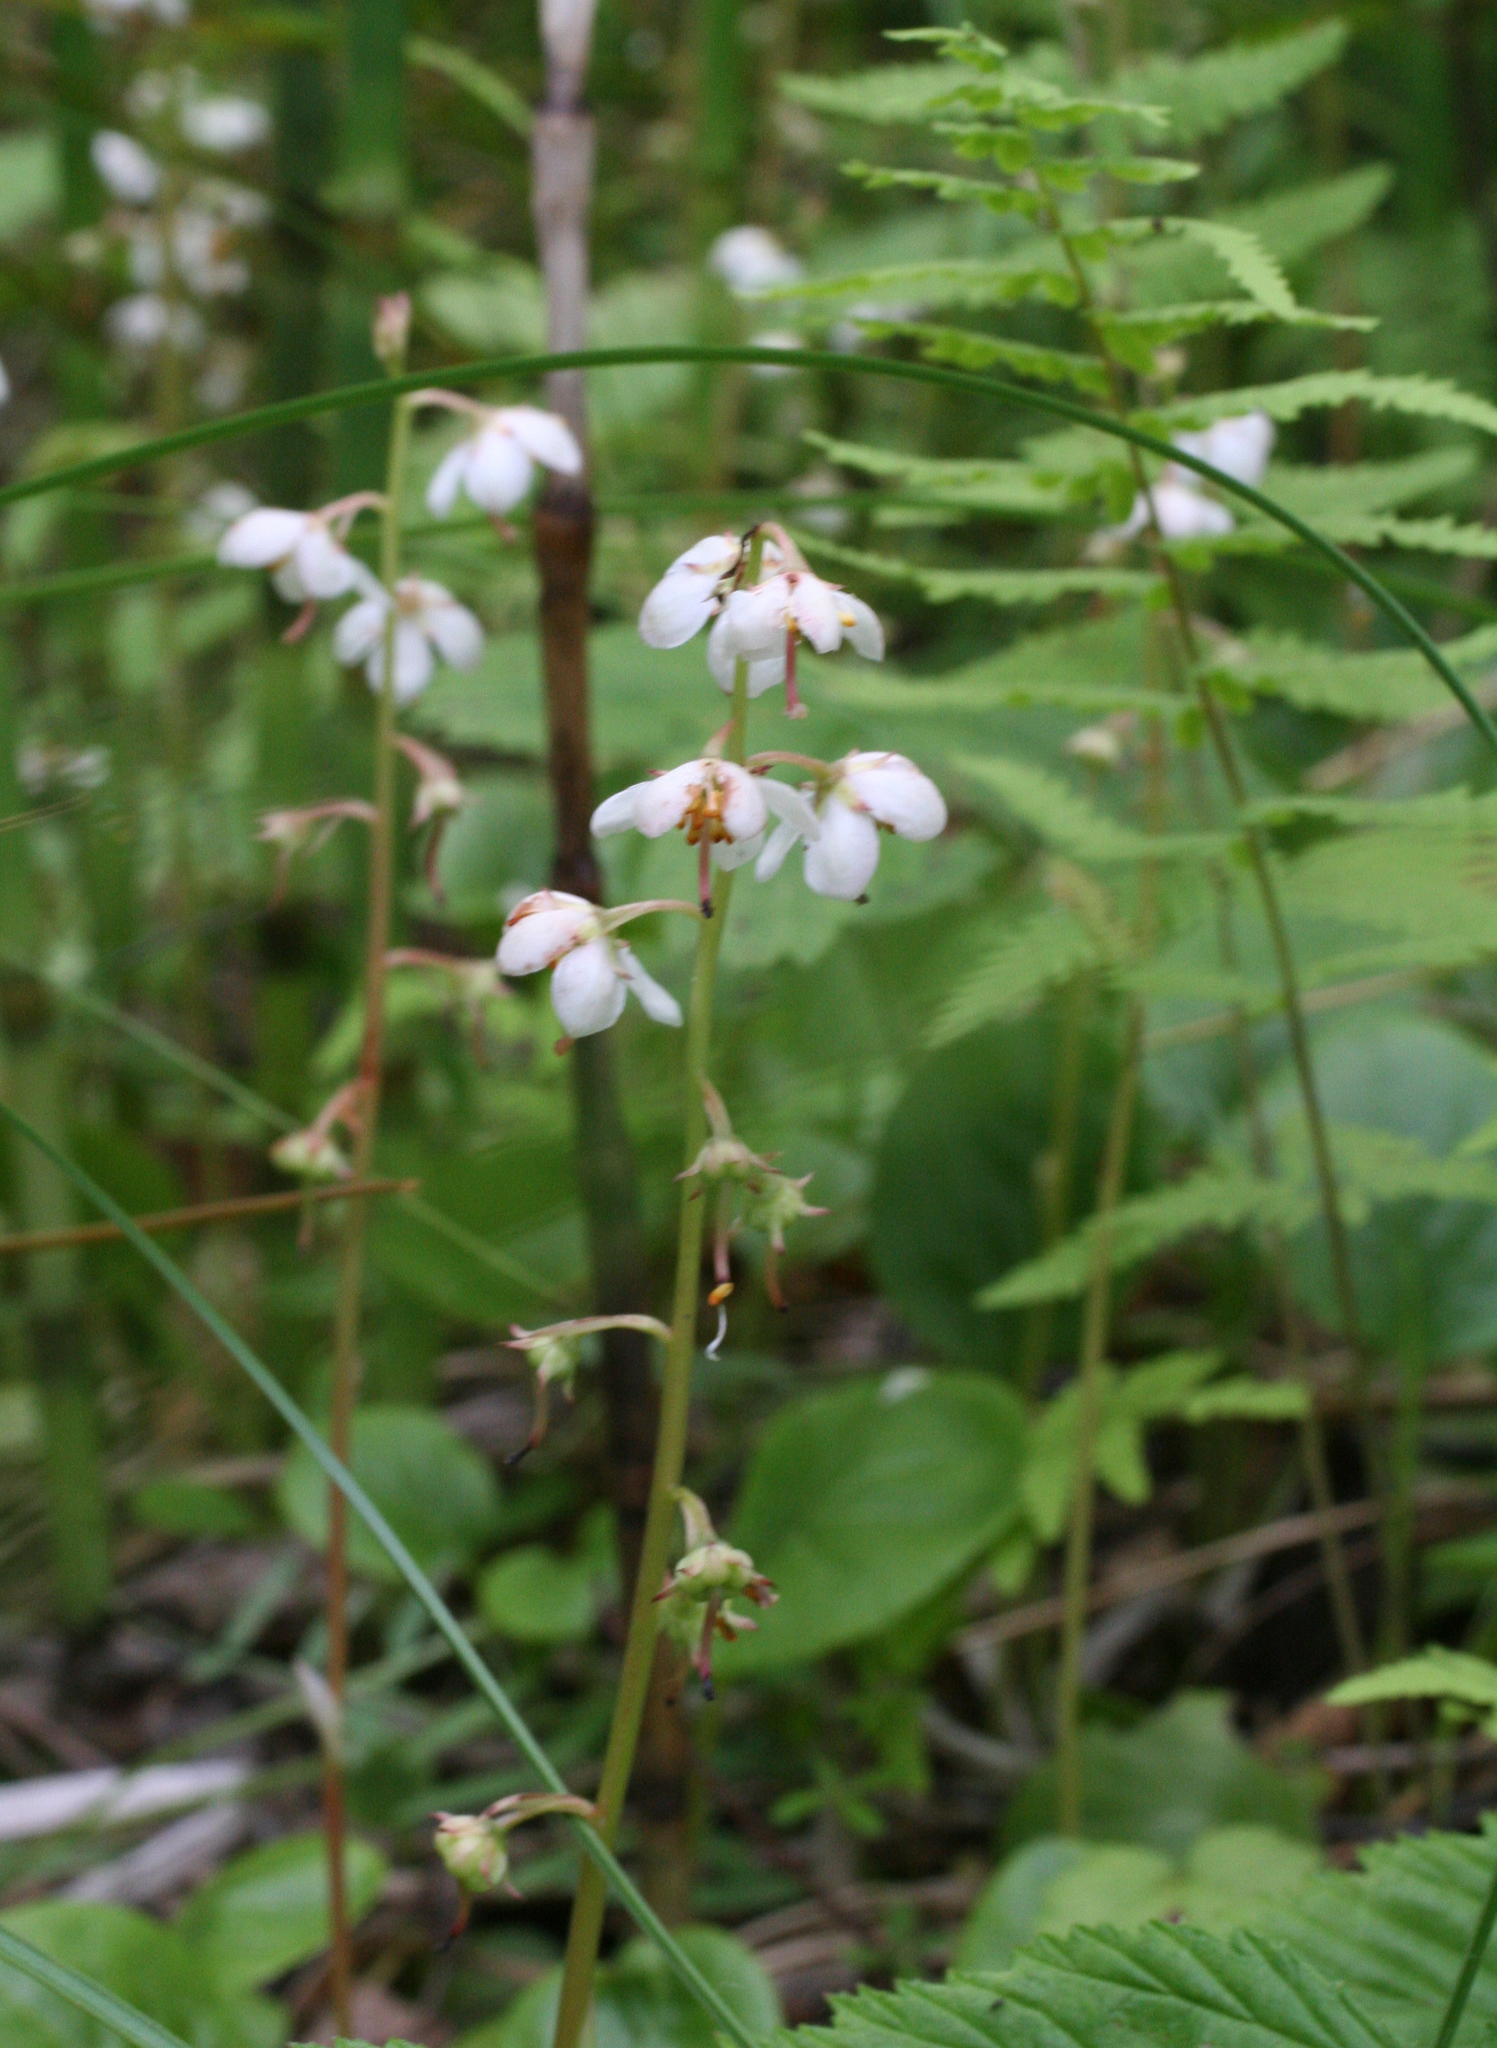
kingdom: Plantae
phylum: Tracheophyta
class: Magnoliopsida
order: Ericales
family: Ericaceae
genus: Pyrola
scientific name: Pyrola rotundifolia
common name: Round-leaved wintergreen
